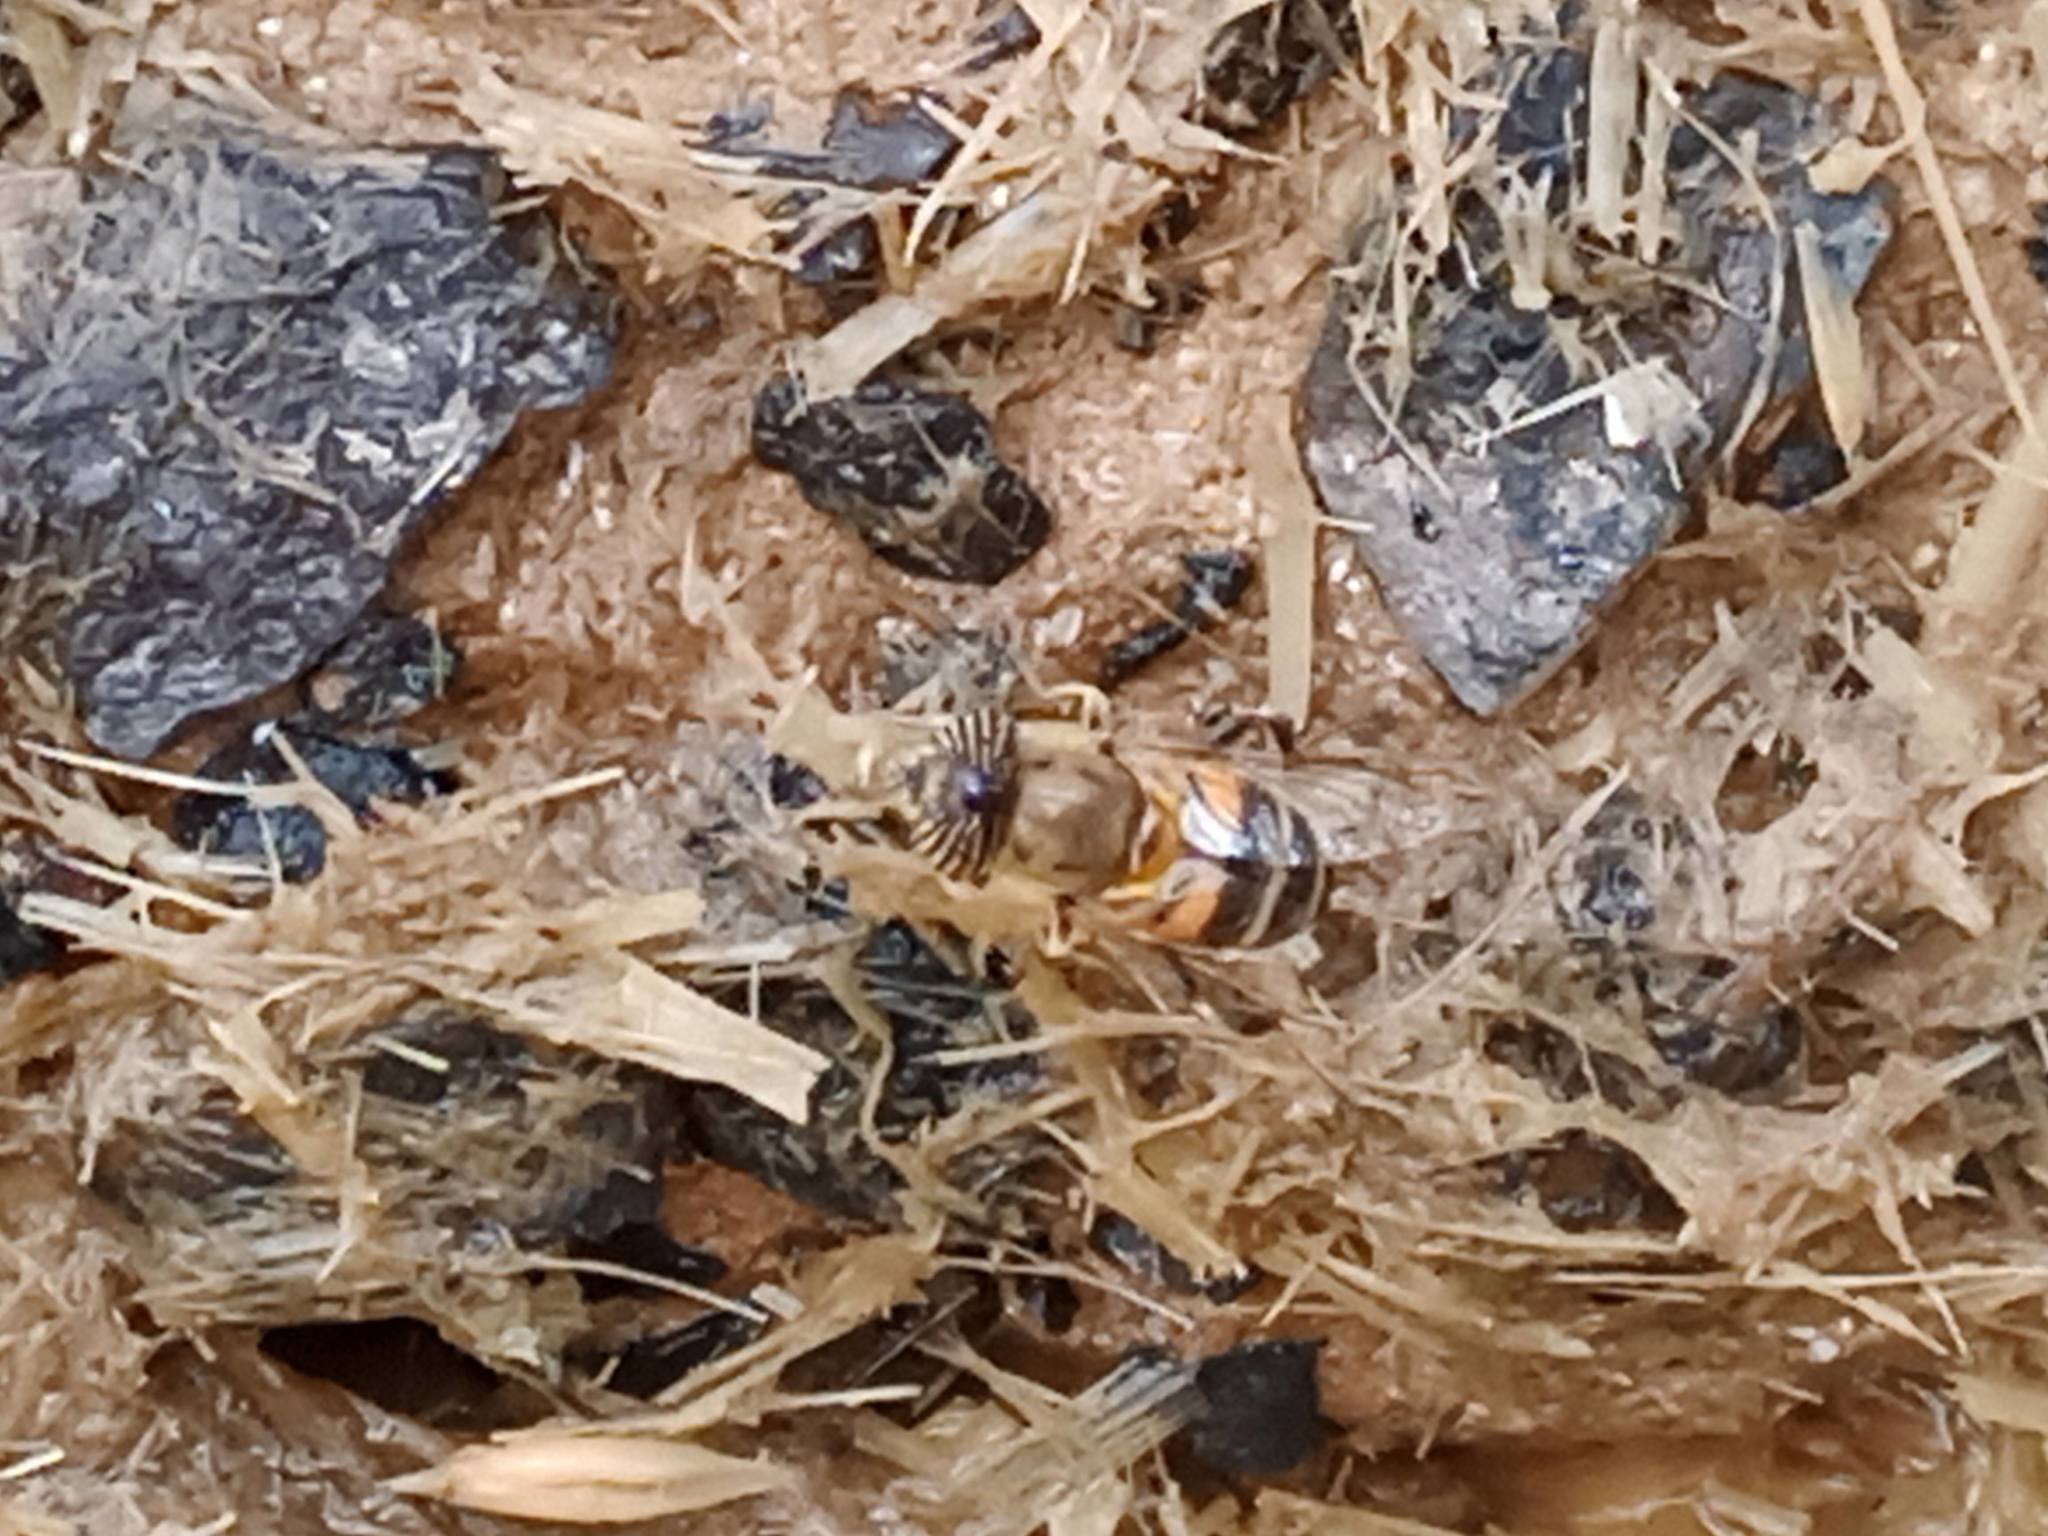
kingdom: Animalia
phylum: Arthropoda
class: Insecta
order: Diptera
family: Syrphidae
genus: Eristalinus
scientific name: Eristalinus taeniops
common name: Syrphid fly
